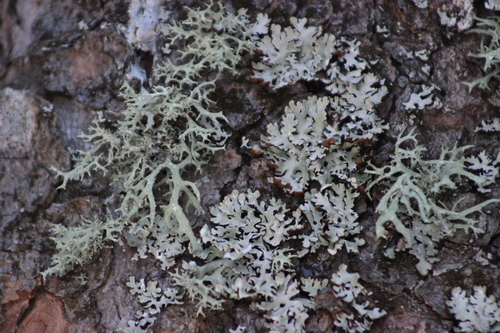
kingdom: Fungi
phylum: Ascomycota
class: Lecanoromycetes
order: Lecanorales
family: Parmeliaceae
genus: Hypogymnia
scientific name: Hypogymnia
